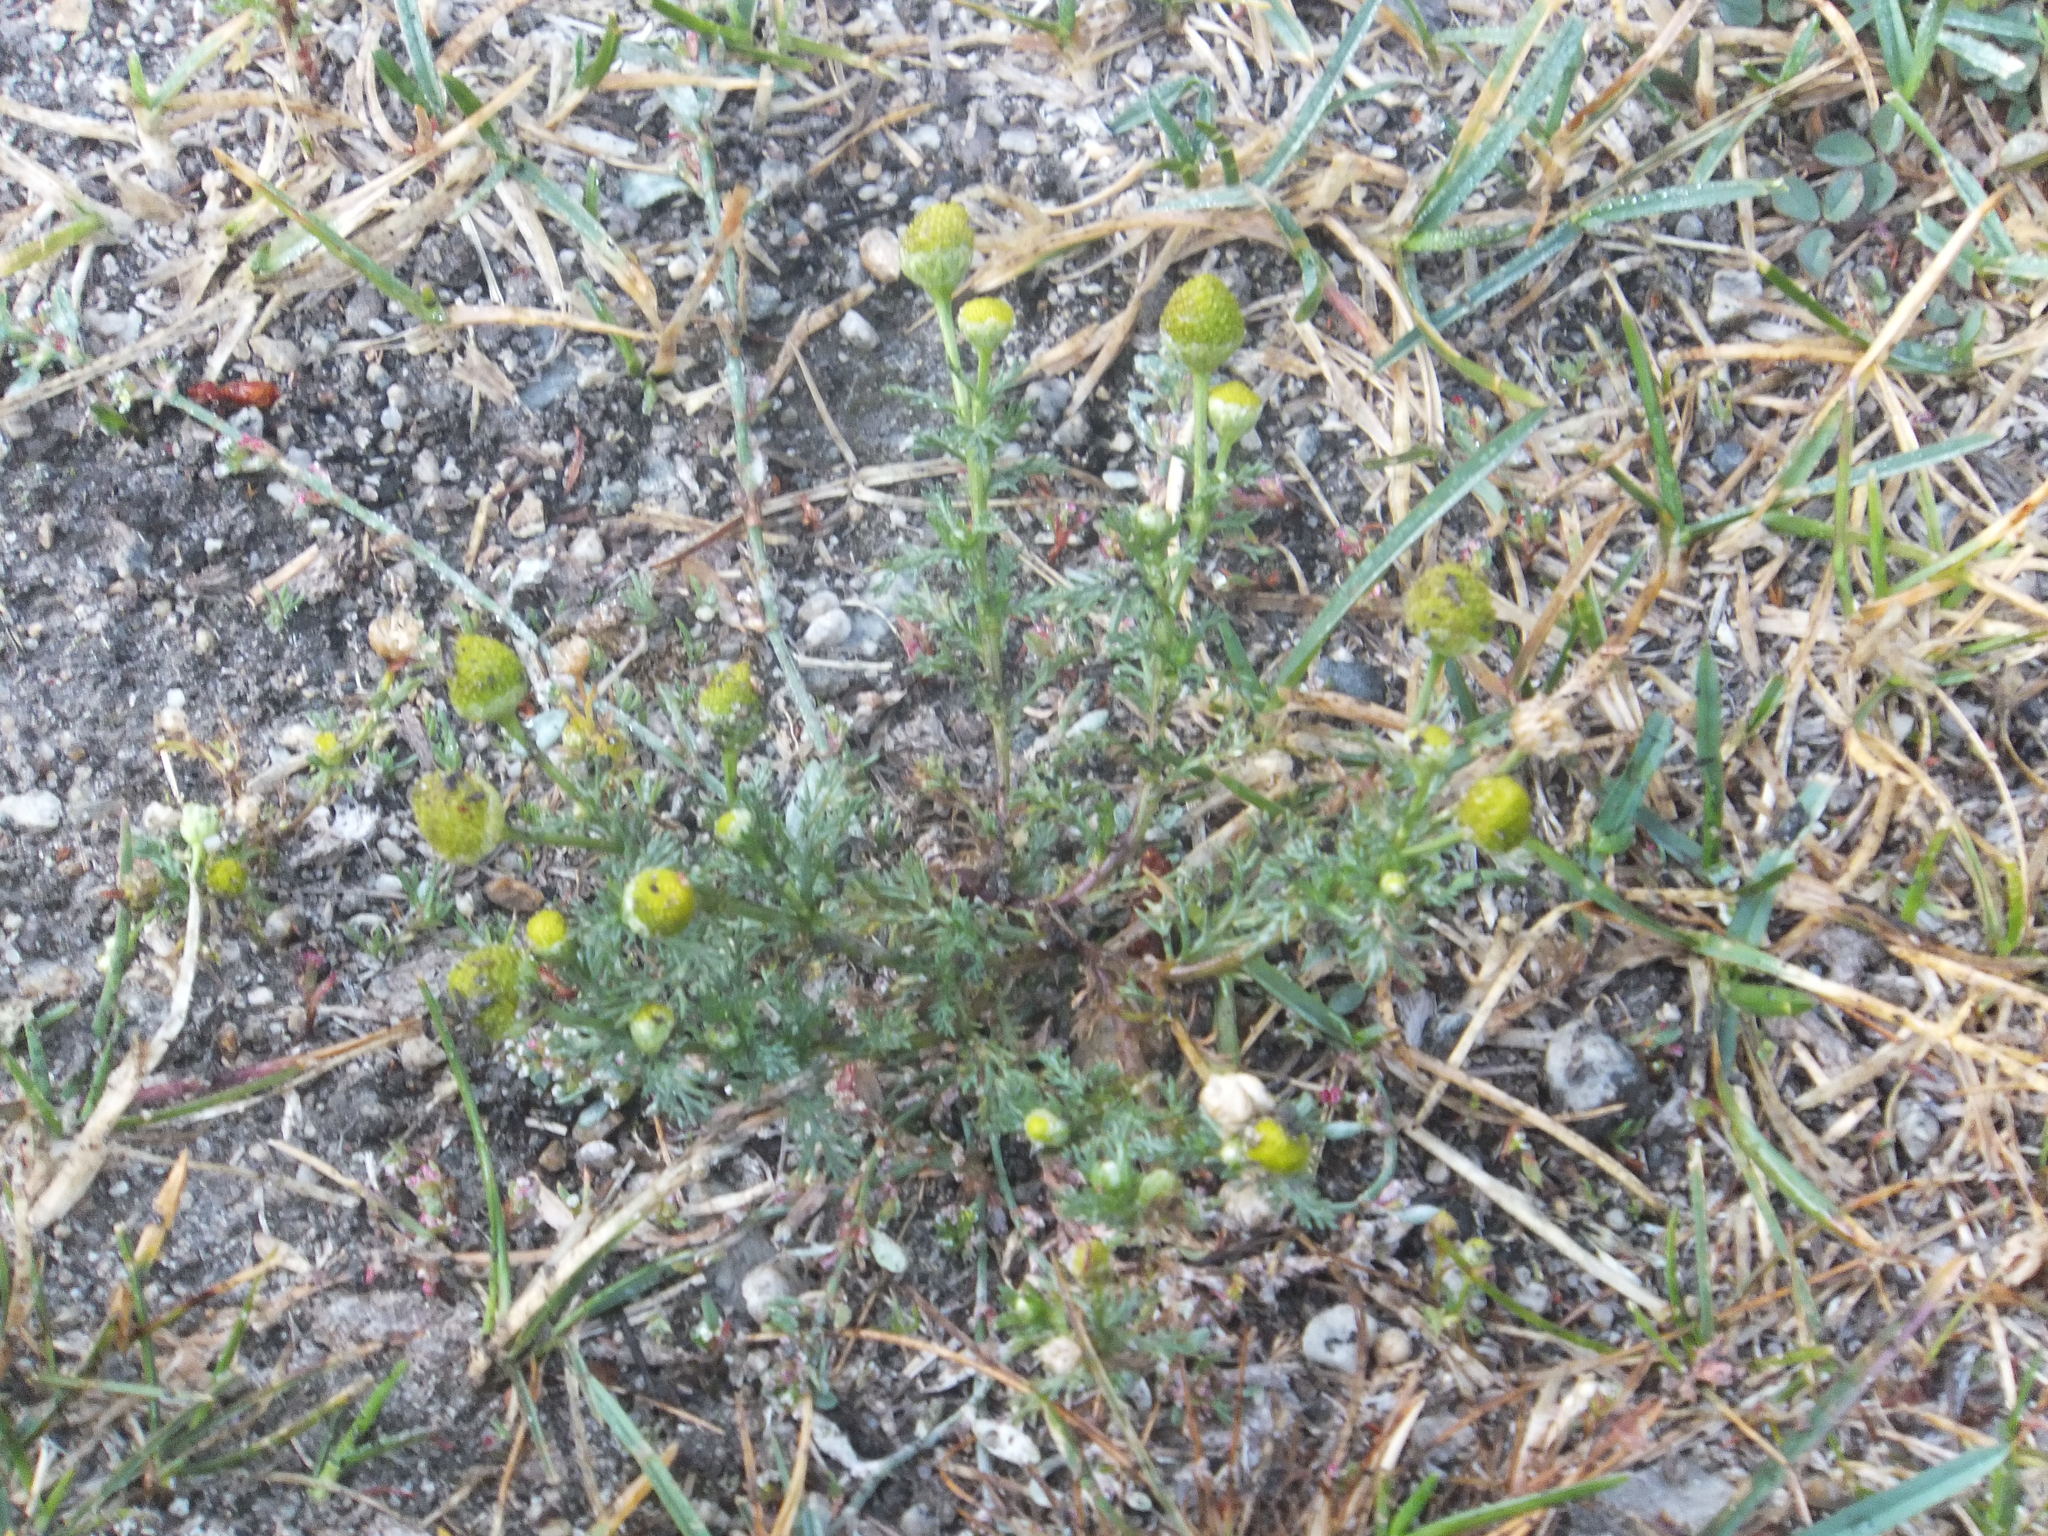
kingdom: Plantae
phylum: Tracheophyta
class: Magnoliopsida
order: Asterales
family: Asteraceae
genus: Matricaria
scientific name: Matricaria discoidea
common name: Disc mayweed
